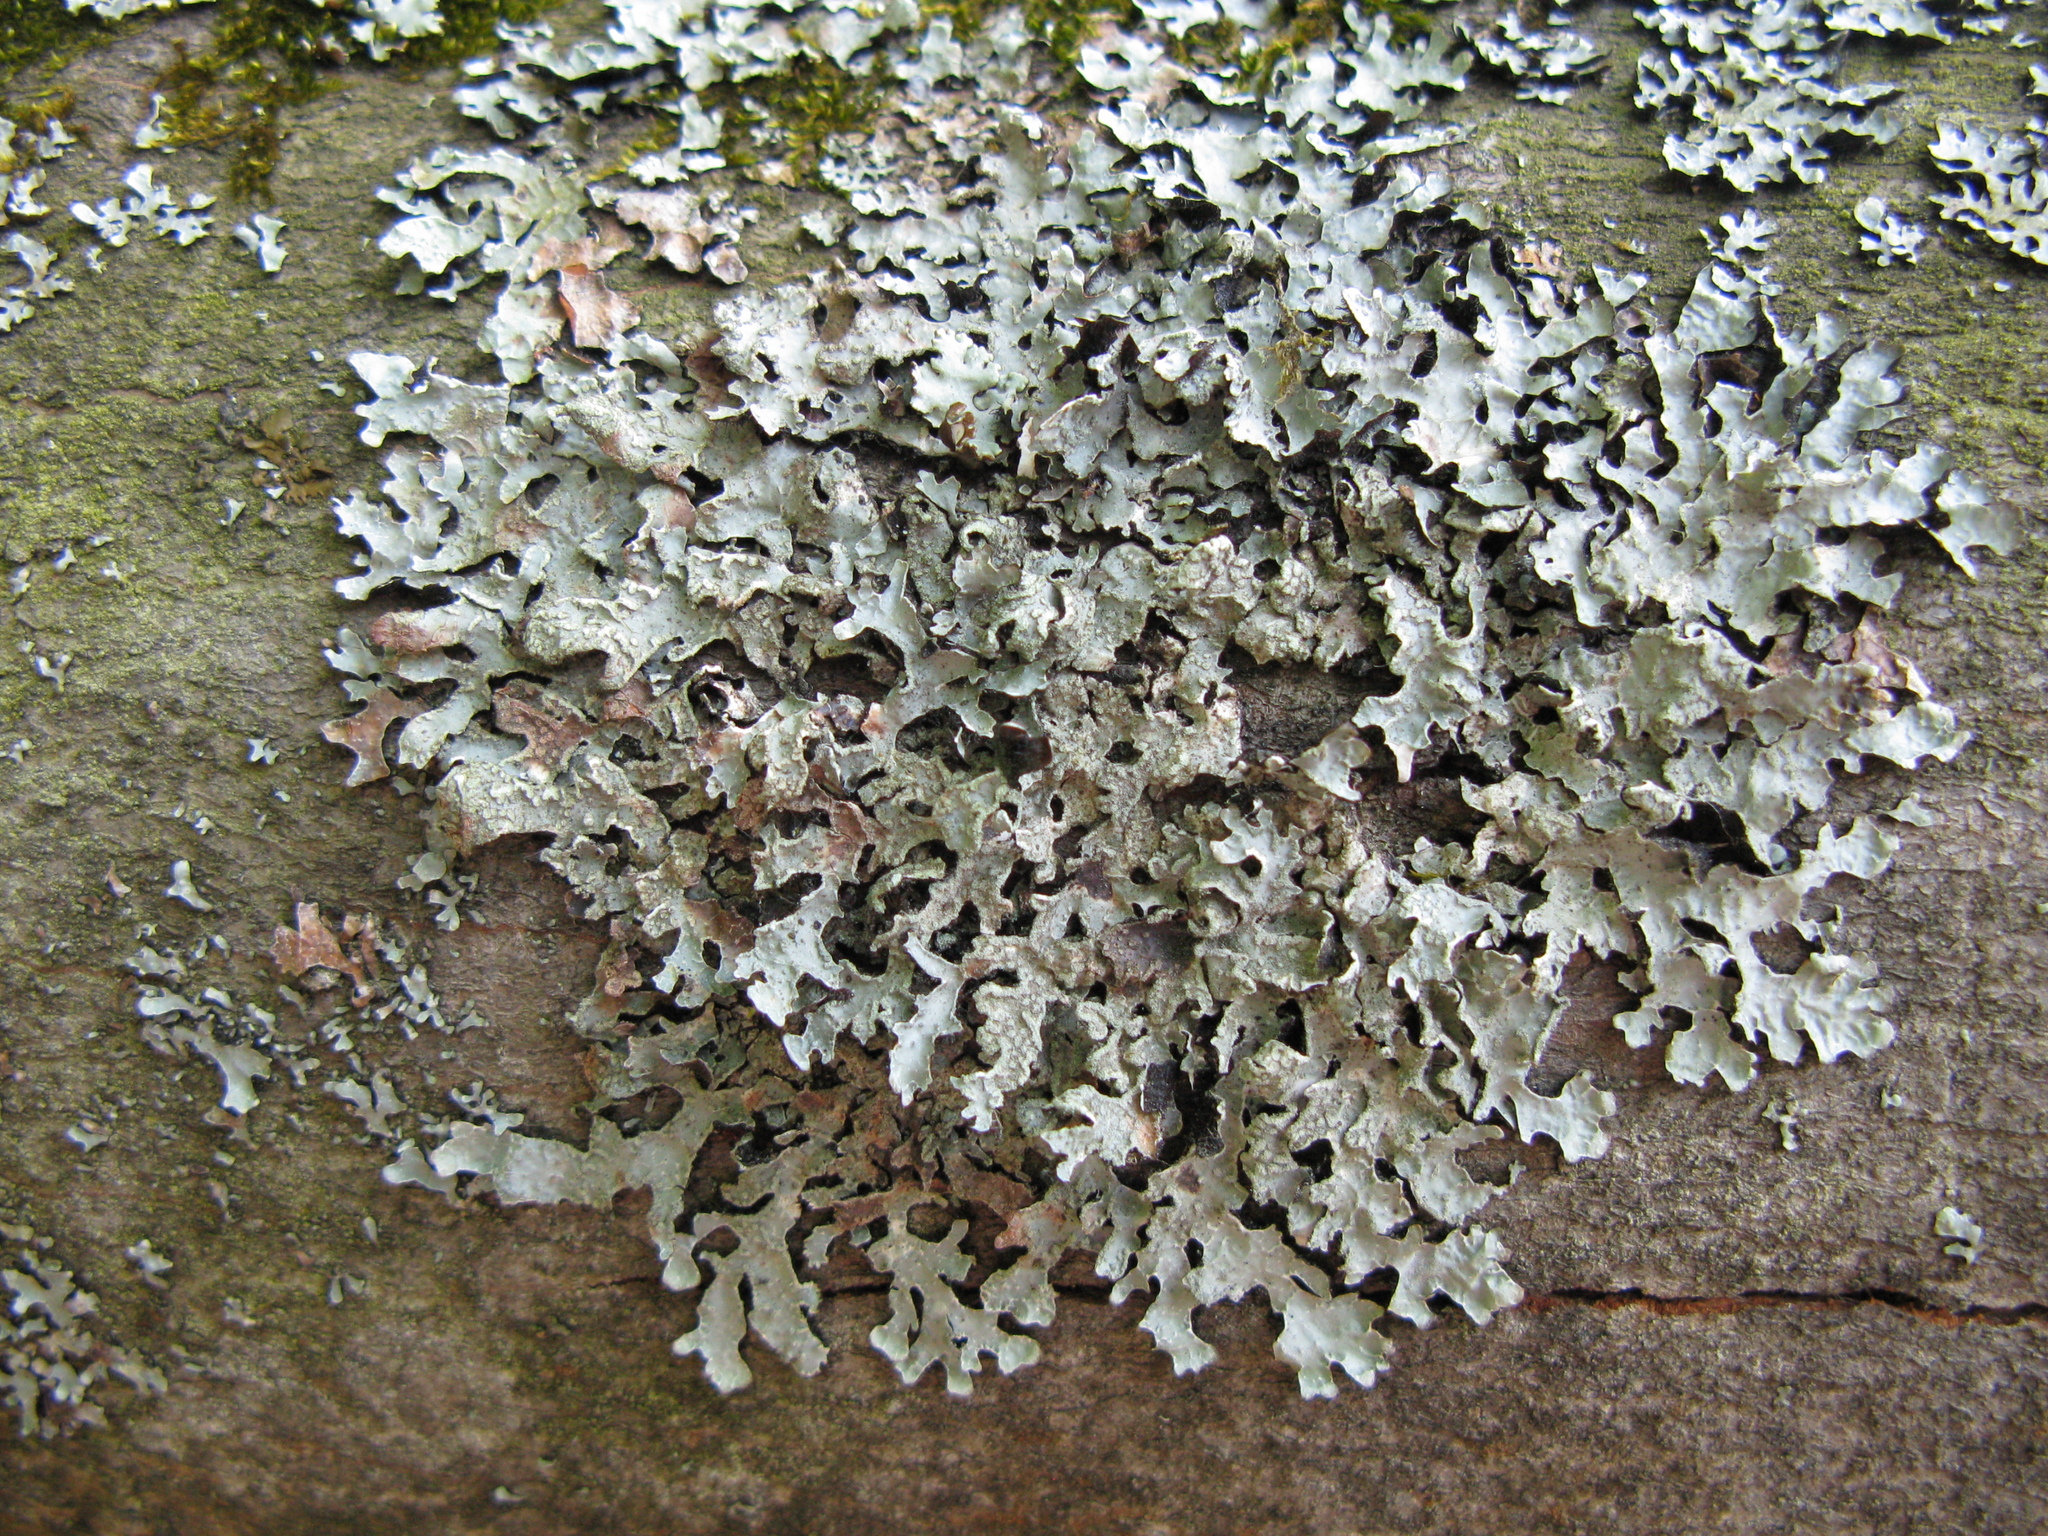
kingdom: Fungi
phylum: Ascomycota
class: Lecanoromycetes
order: Lecanorales
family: Parmeliaceae
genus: Parmelia
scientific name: Parmelia sulcata
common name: Netted shield lichen
